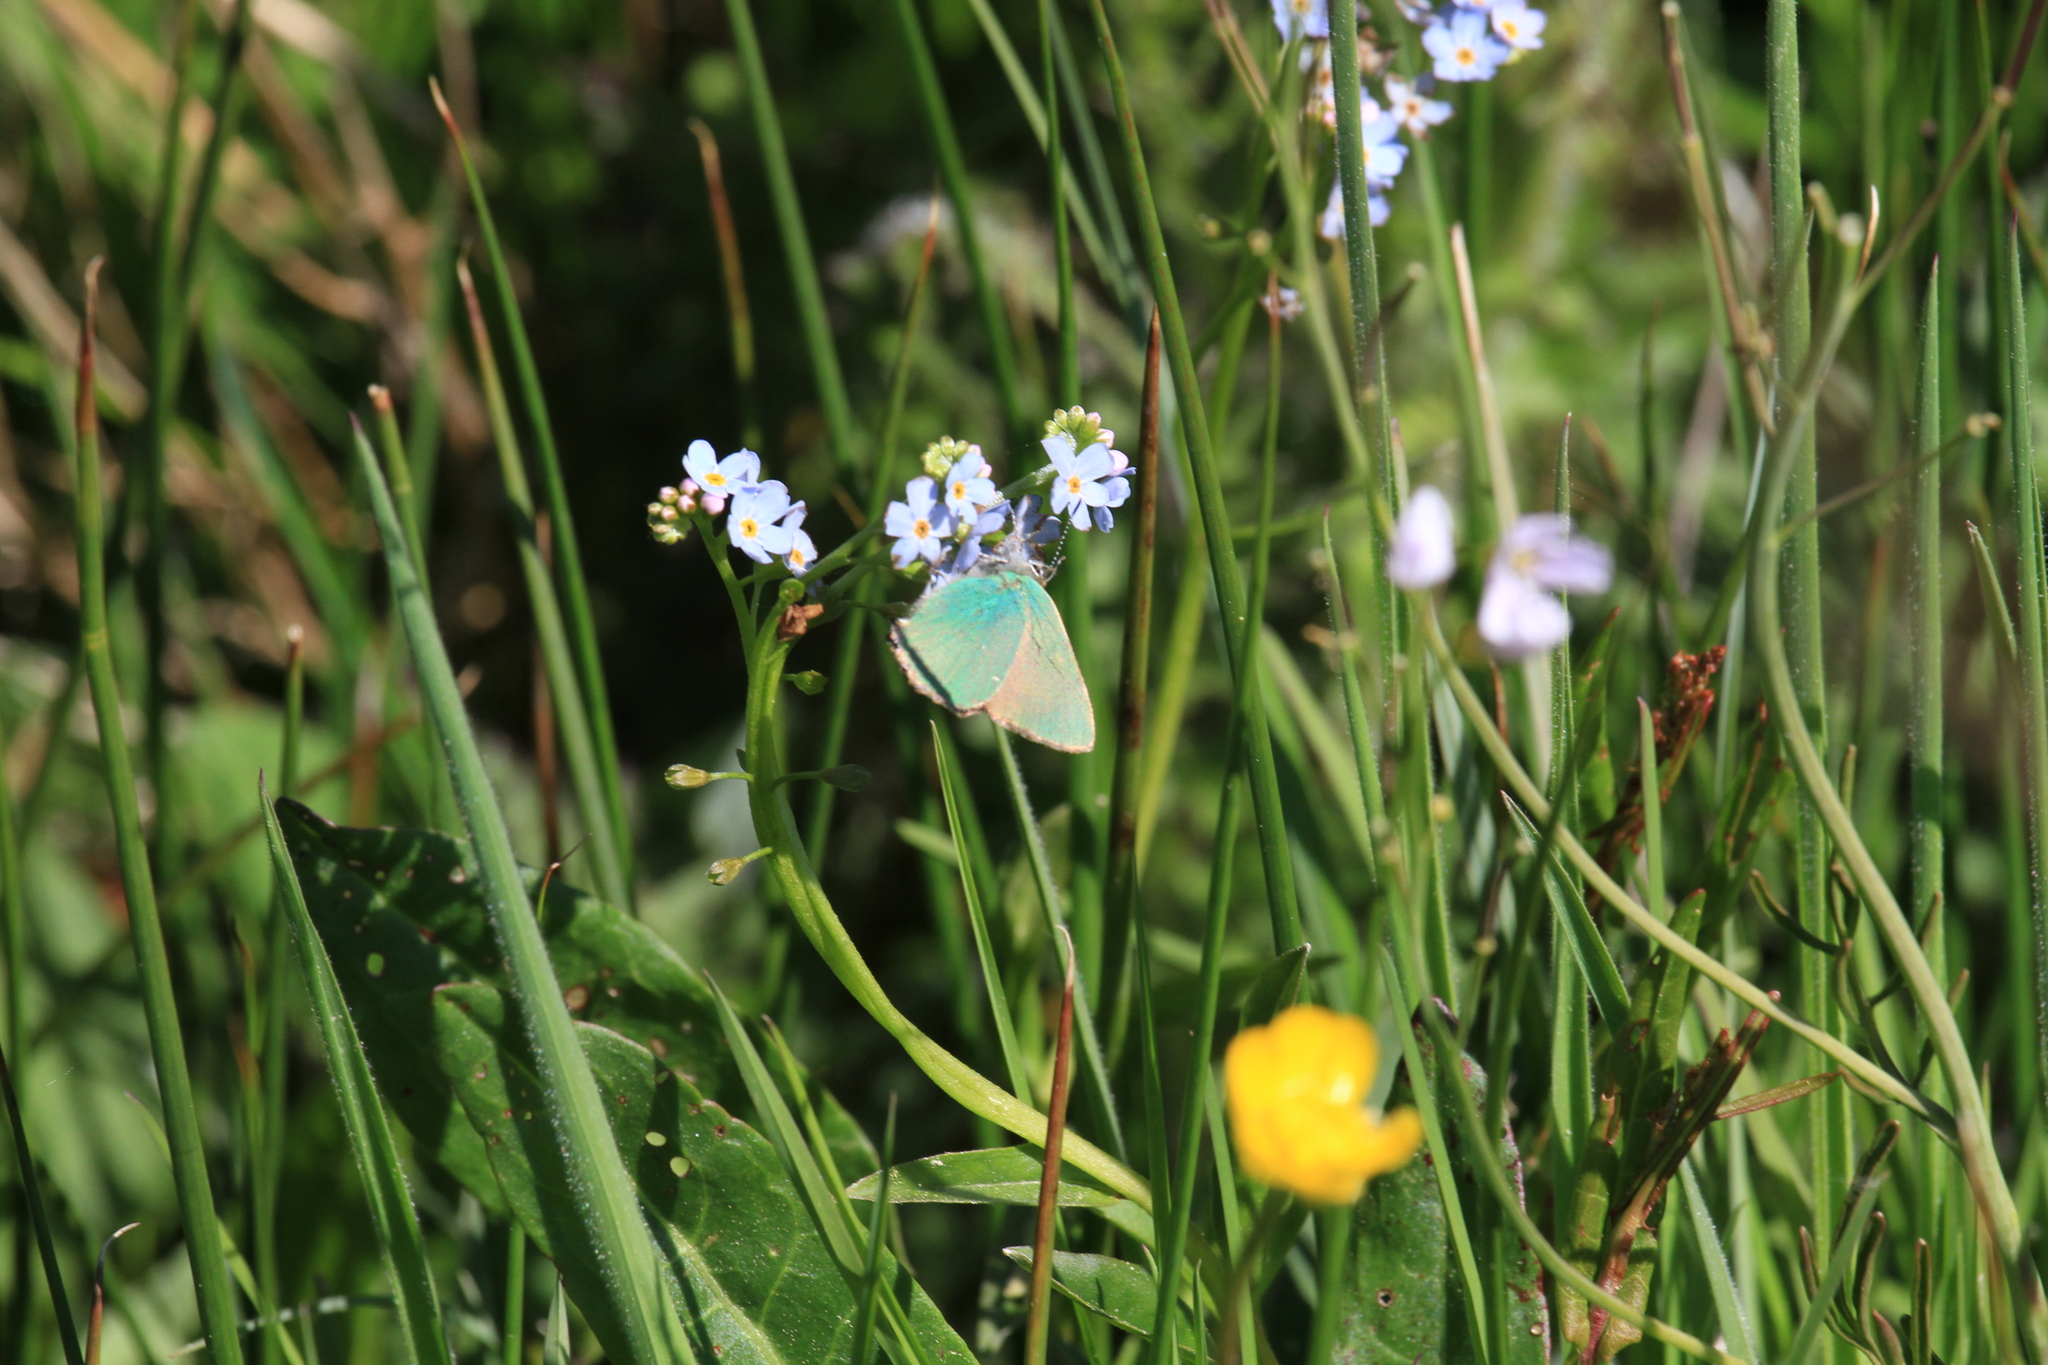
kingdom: Animalia
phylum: Arthropoda
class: Insecta
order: Lepidoptera
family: Lycaenidae
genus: Callophrys
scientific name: Callophrys rubi
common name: Green hairstreak
